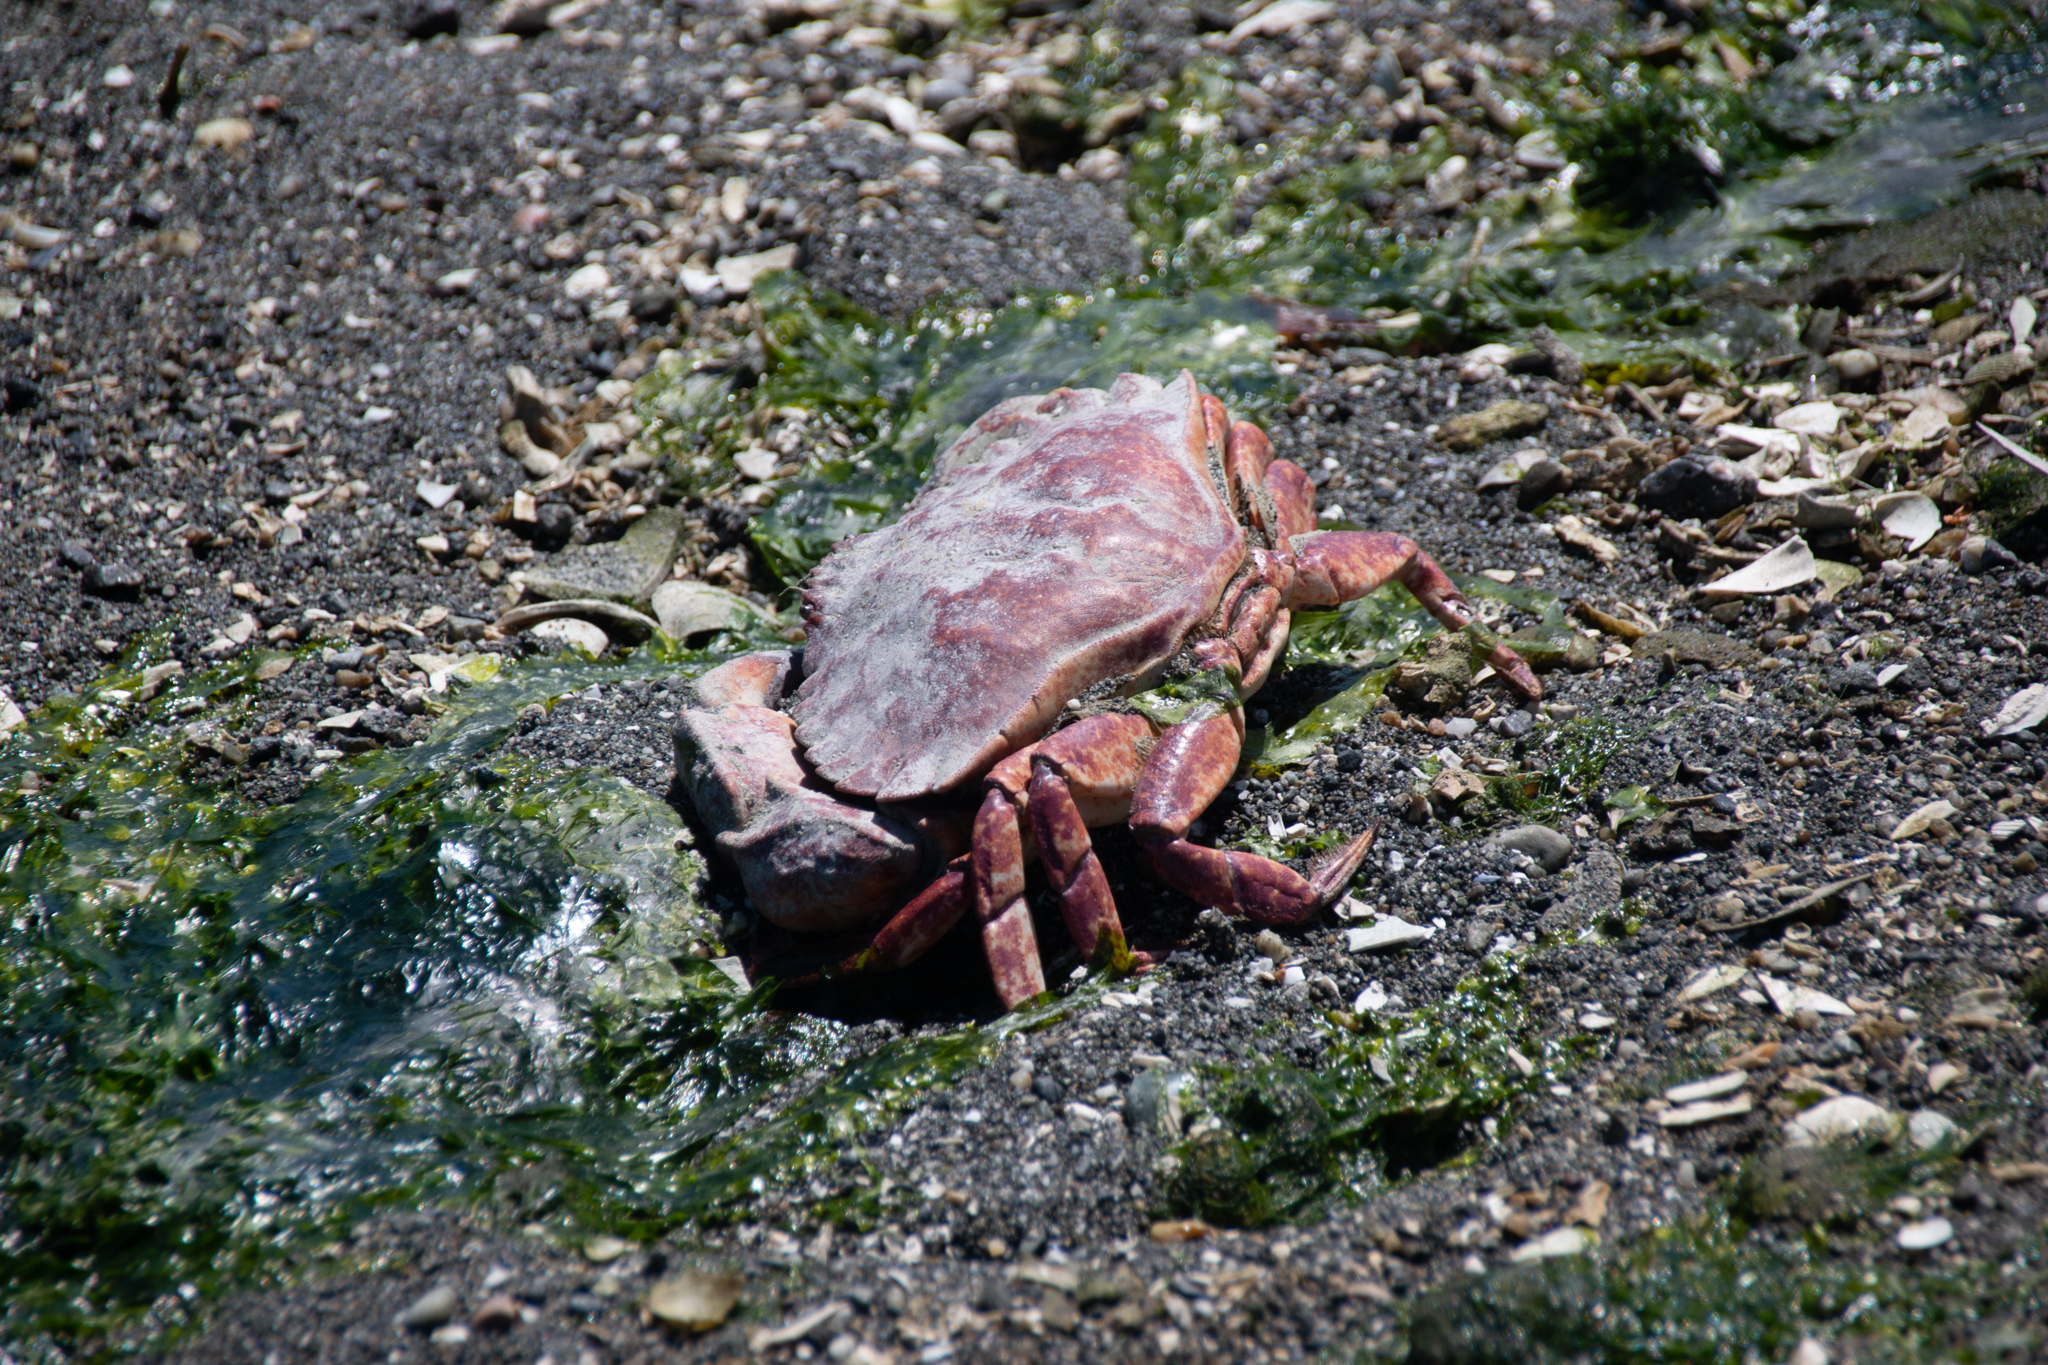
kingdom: Animalia
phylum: Arthropoda
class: Malacostraca
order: Decapoda
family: Cancridae
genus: Cancer
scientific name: Cancer productus
